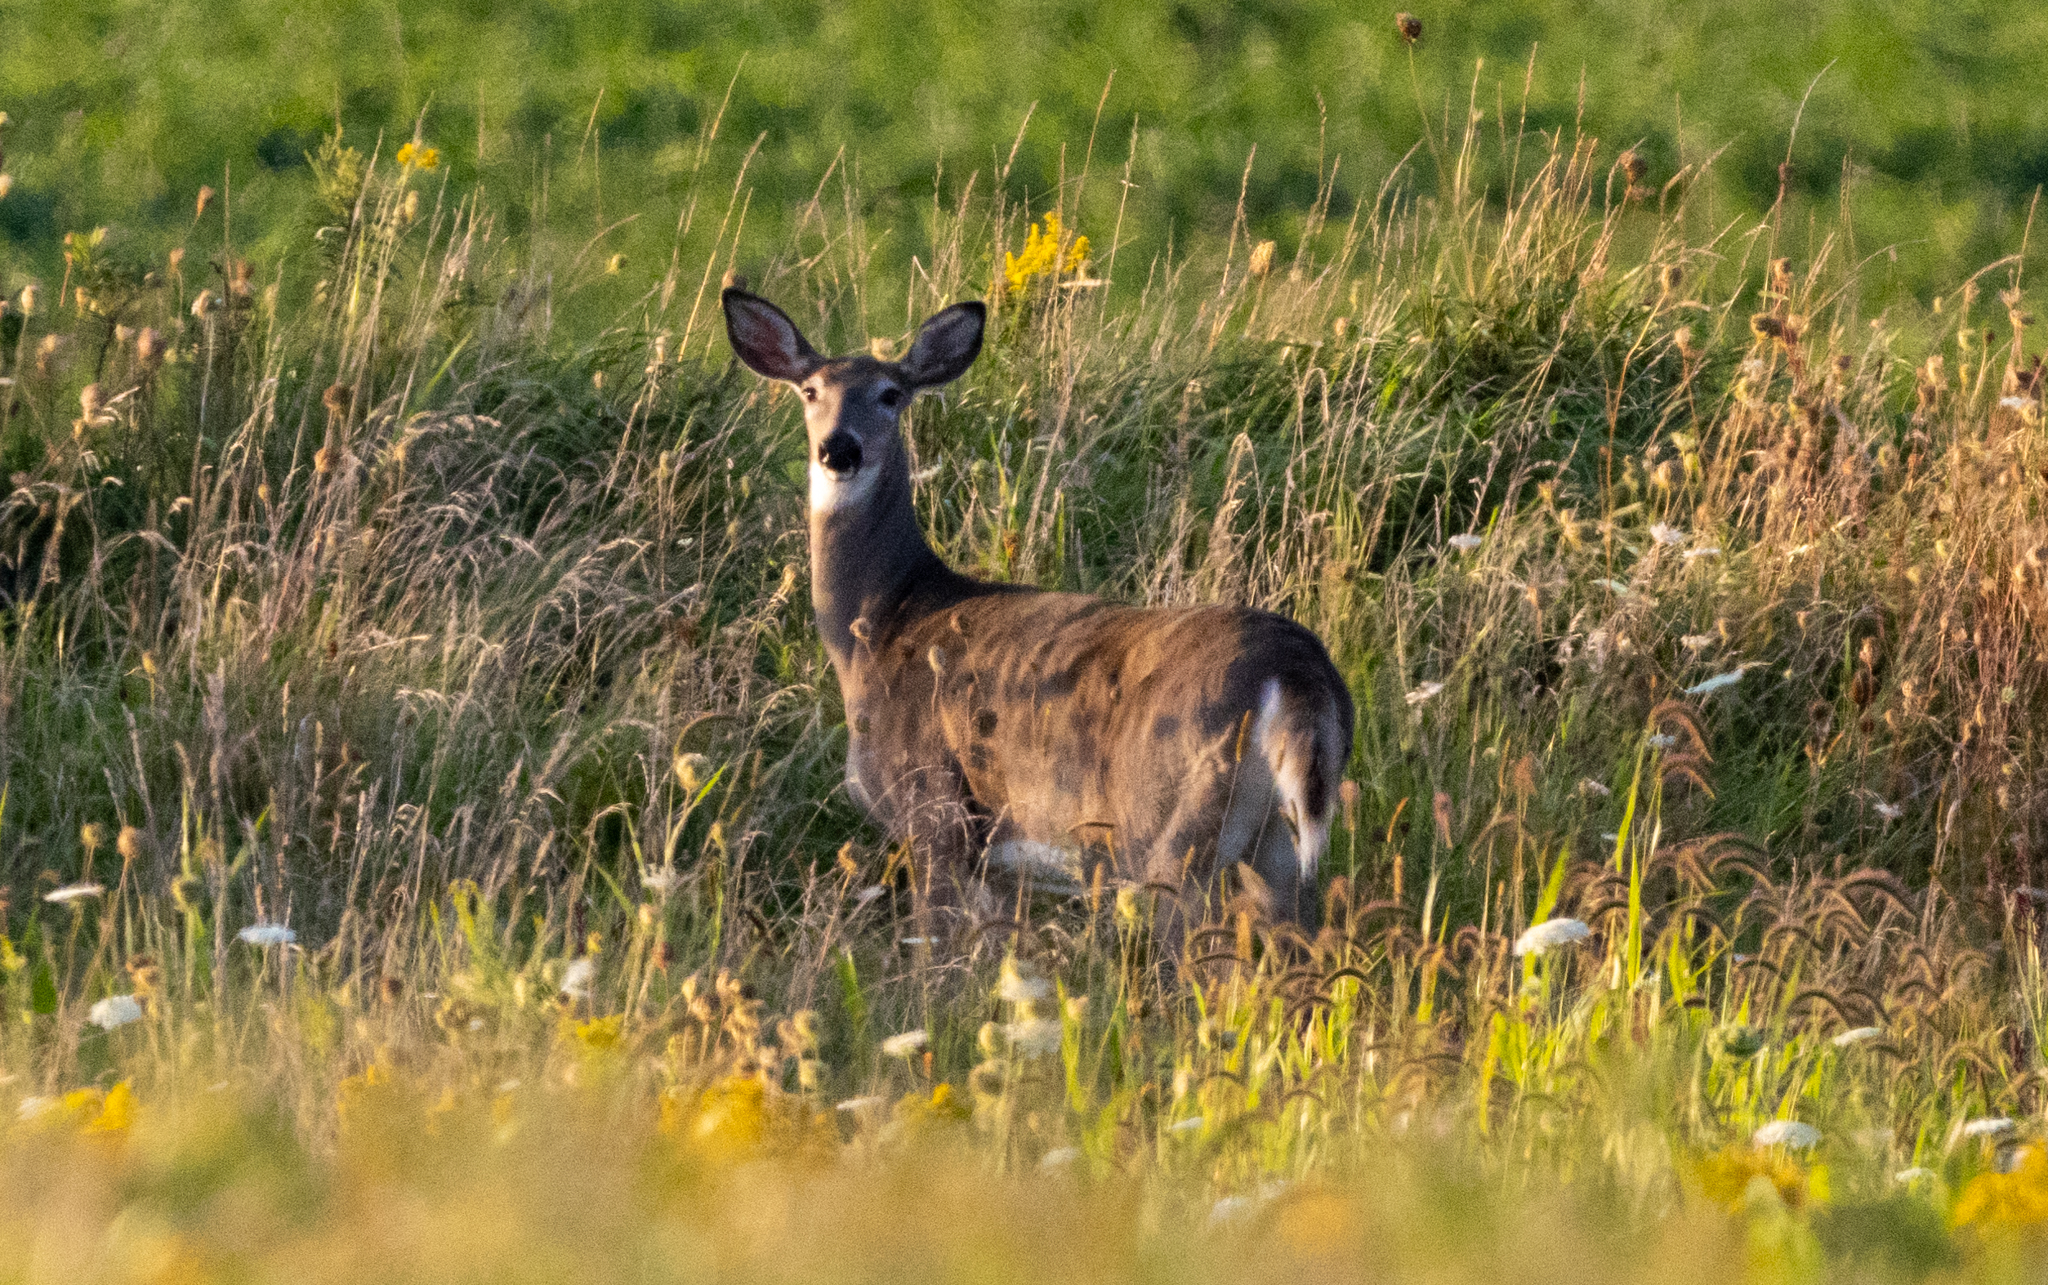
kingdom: Animalia
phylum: Chordata
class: Mammalia
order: Artiodactyla
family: Cervidae
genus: Odocoileus
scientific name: Odocoileus virginianus
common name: White-tailed deer
